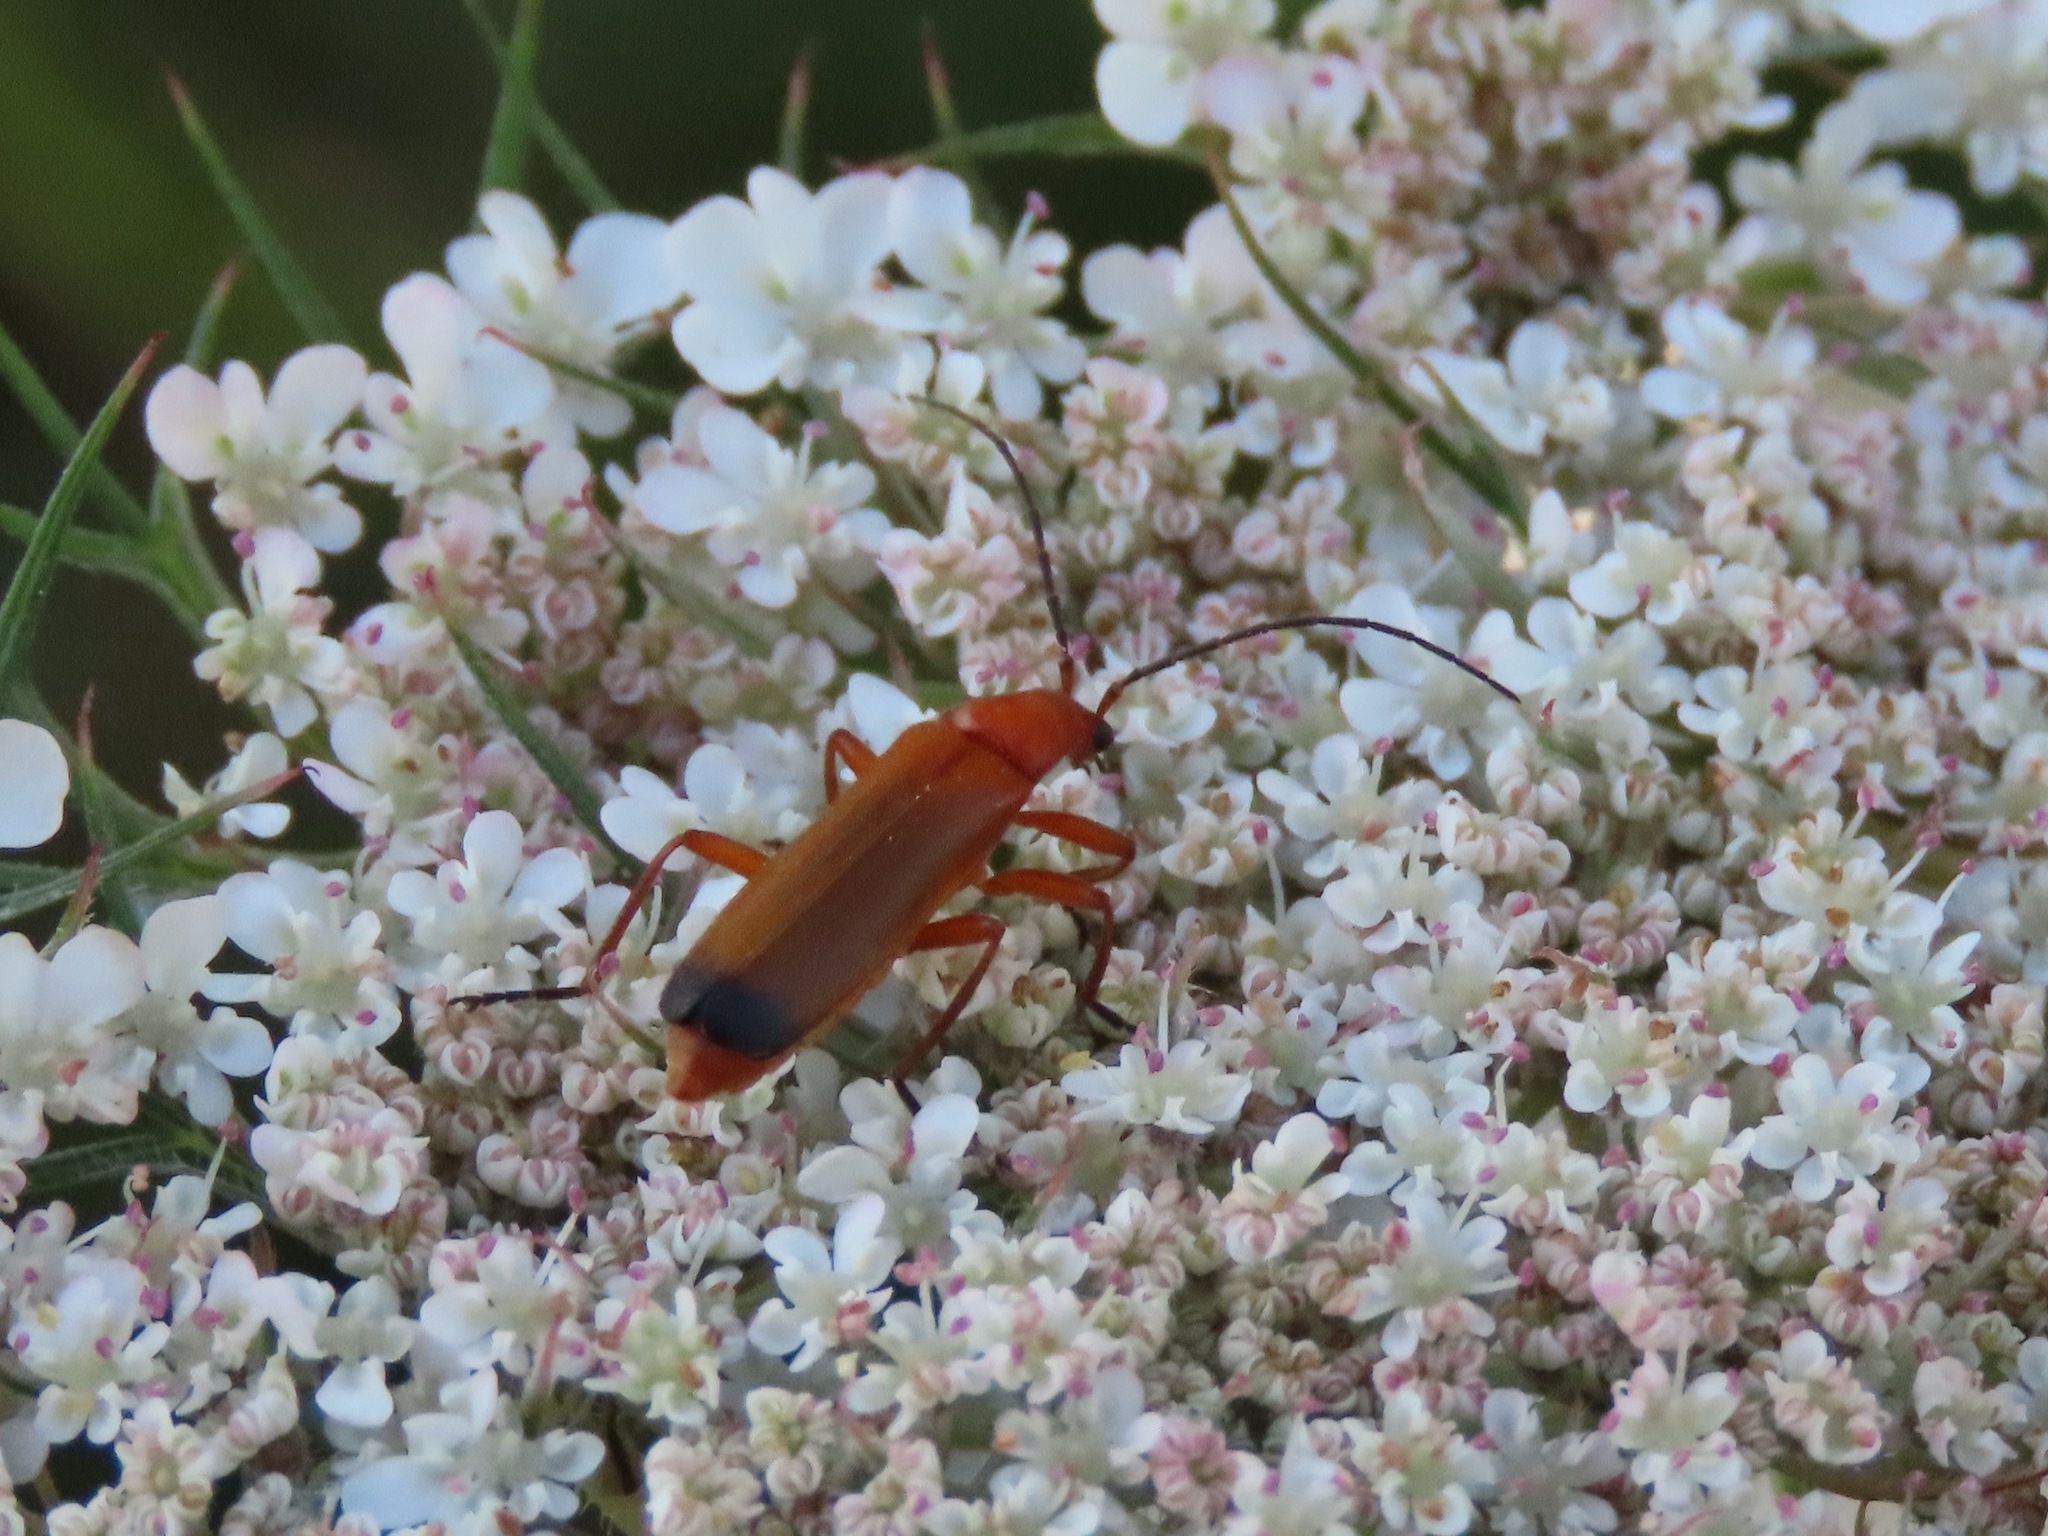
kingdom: Animalia
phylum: Arthropoda
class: Insecta
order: Coleoptera
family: Cantharidae
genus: Rhagonycha
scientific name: Rhagonycha fulva
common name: Common red soldier beetle
